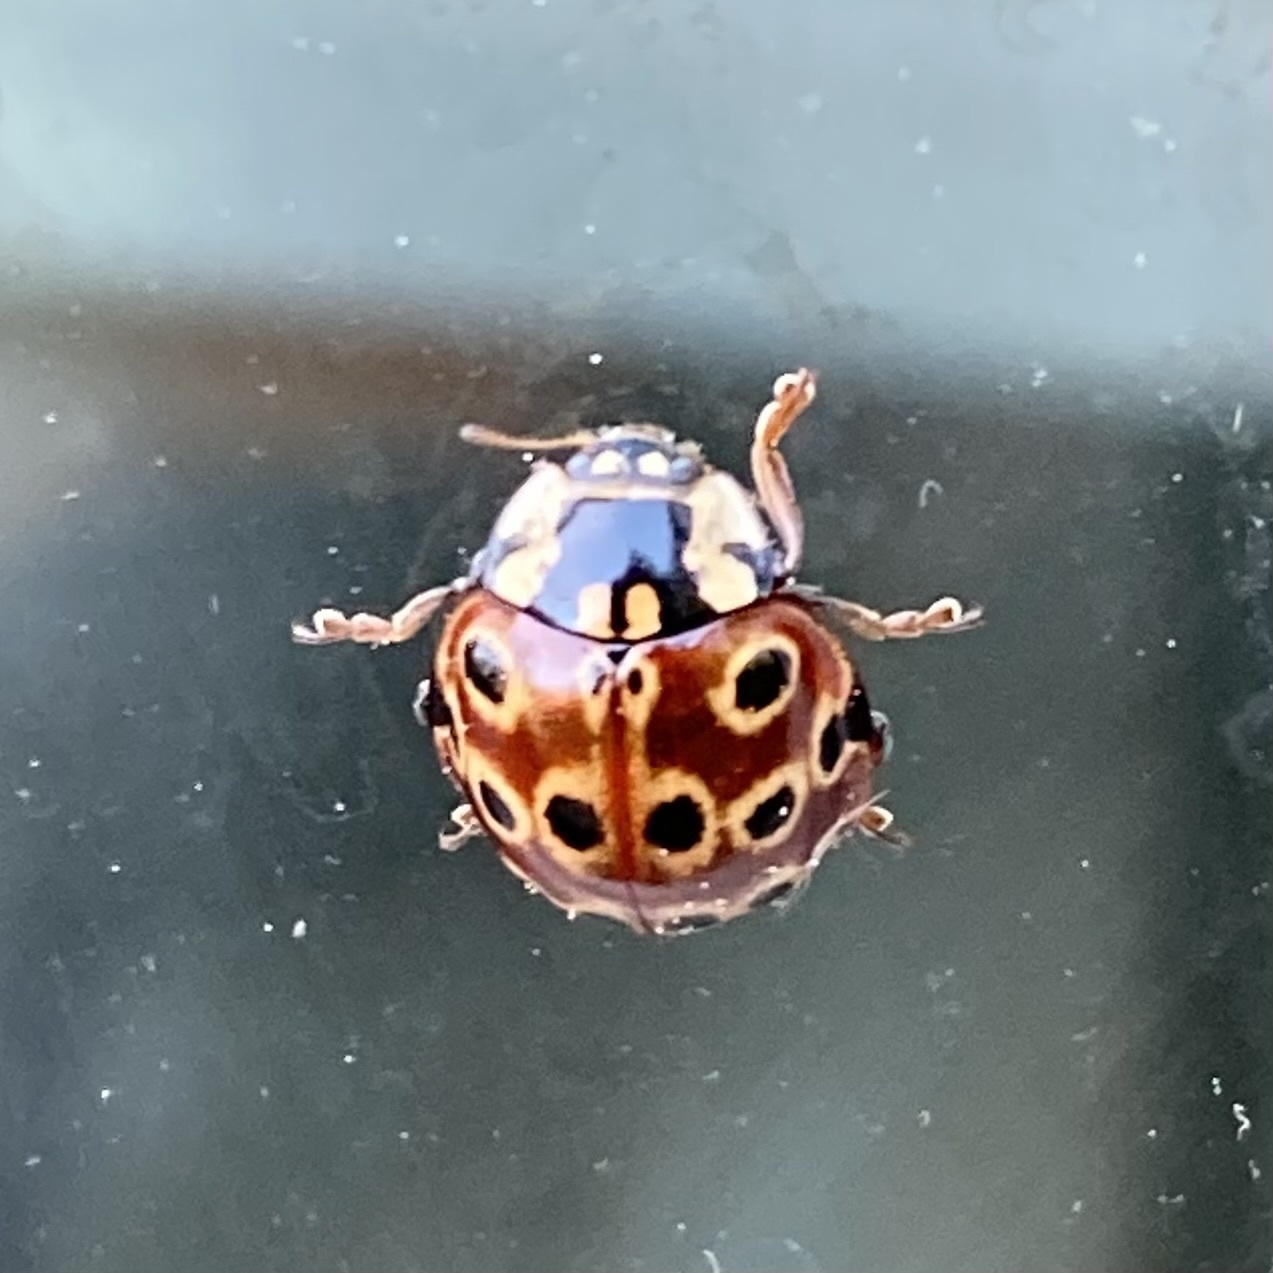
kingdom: Animalia
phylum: Arthropoda
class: Insecta
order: Coleoptera
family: Coccinellidae
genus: Anatis
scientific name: Anatis mali
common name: Eye-spotted lady beetle
